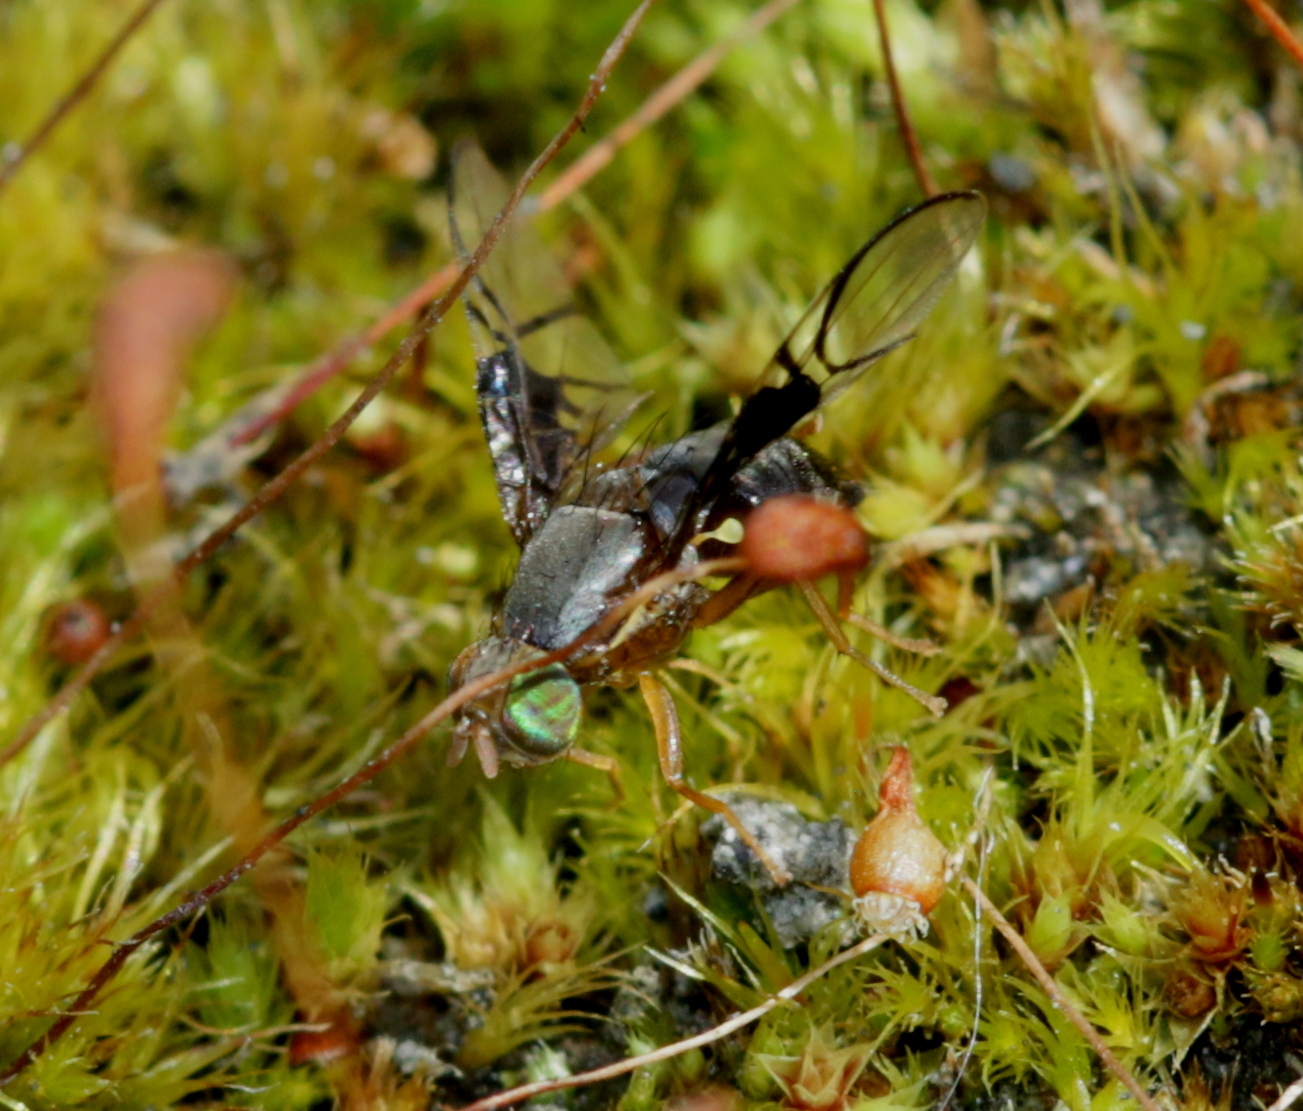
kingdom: Animalia
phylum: Arthropoda
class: Insecta
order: Diptera
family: Tephritidae
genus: Anomoia
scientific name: Anomoia purmunda
